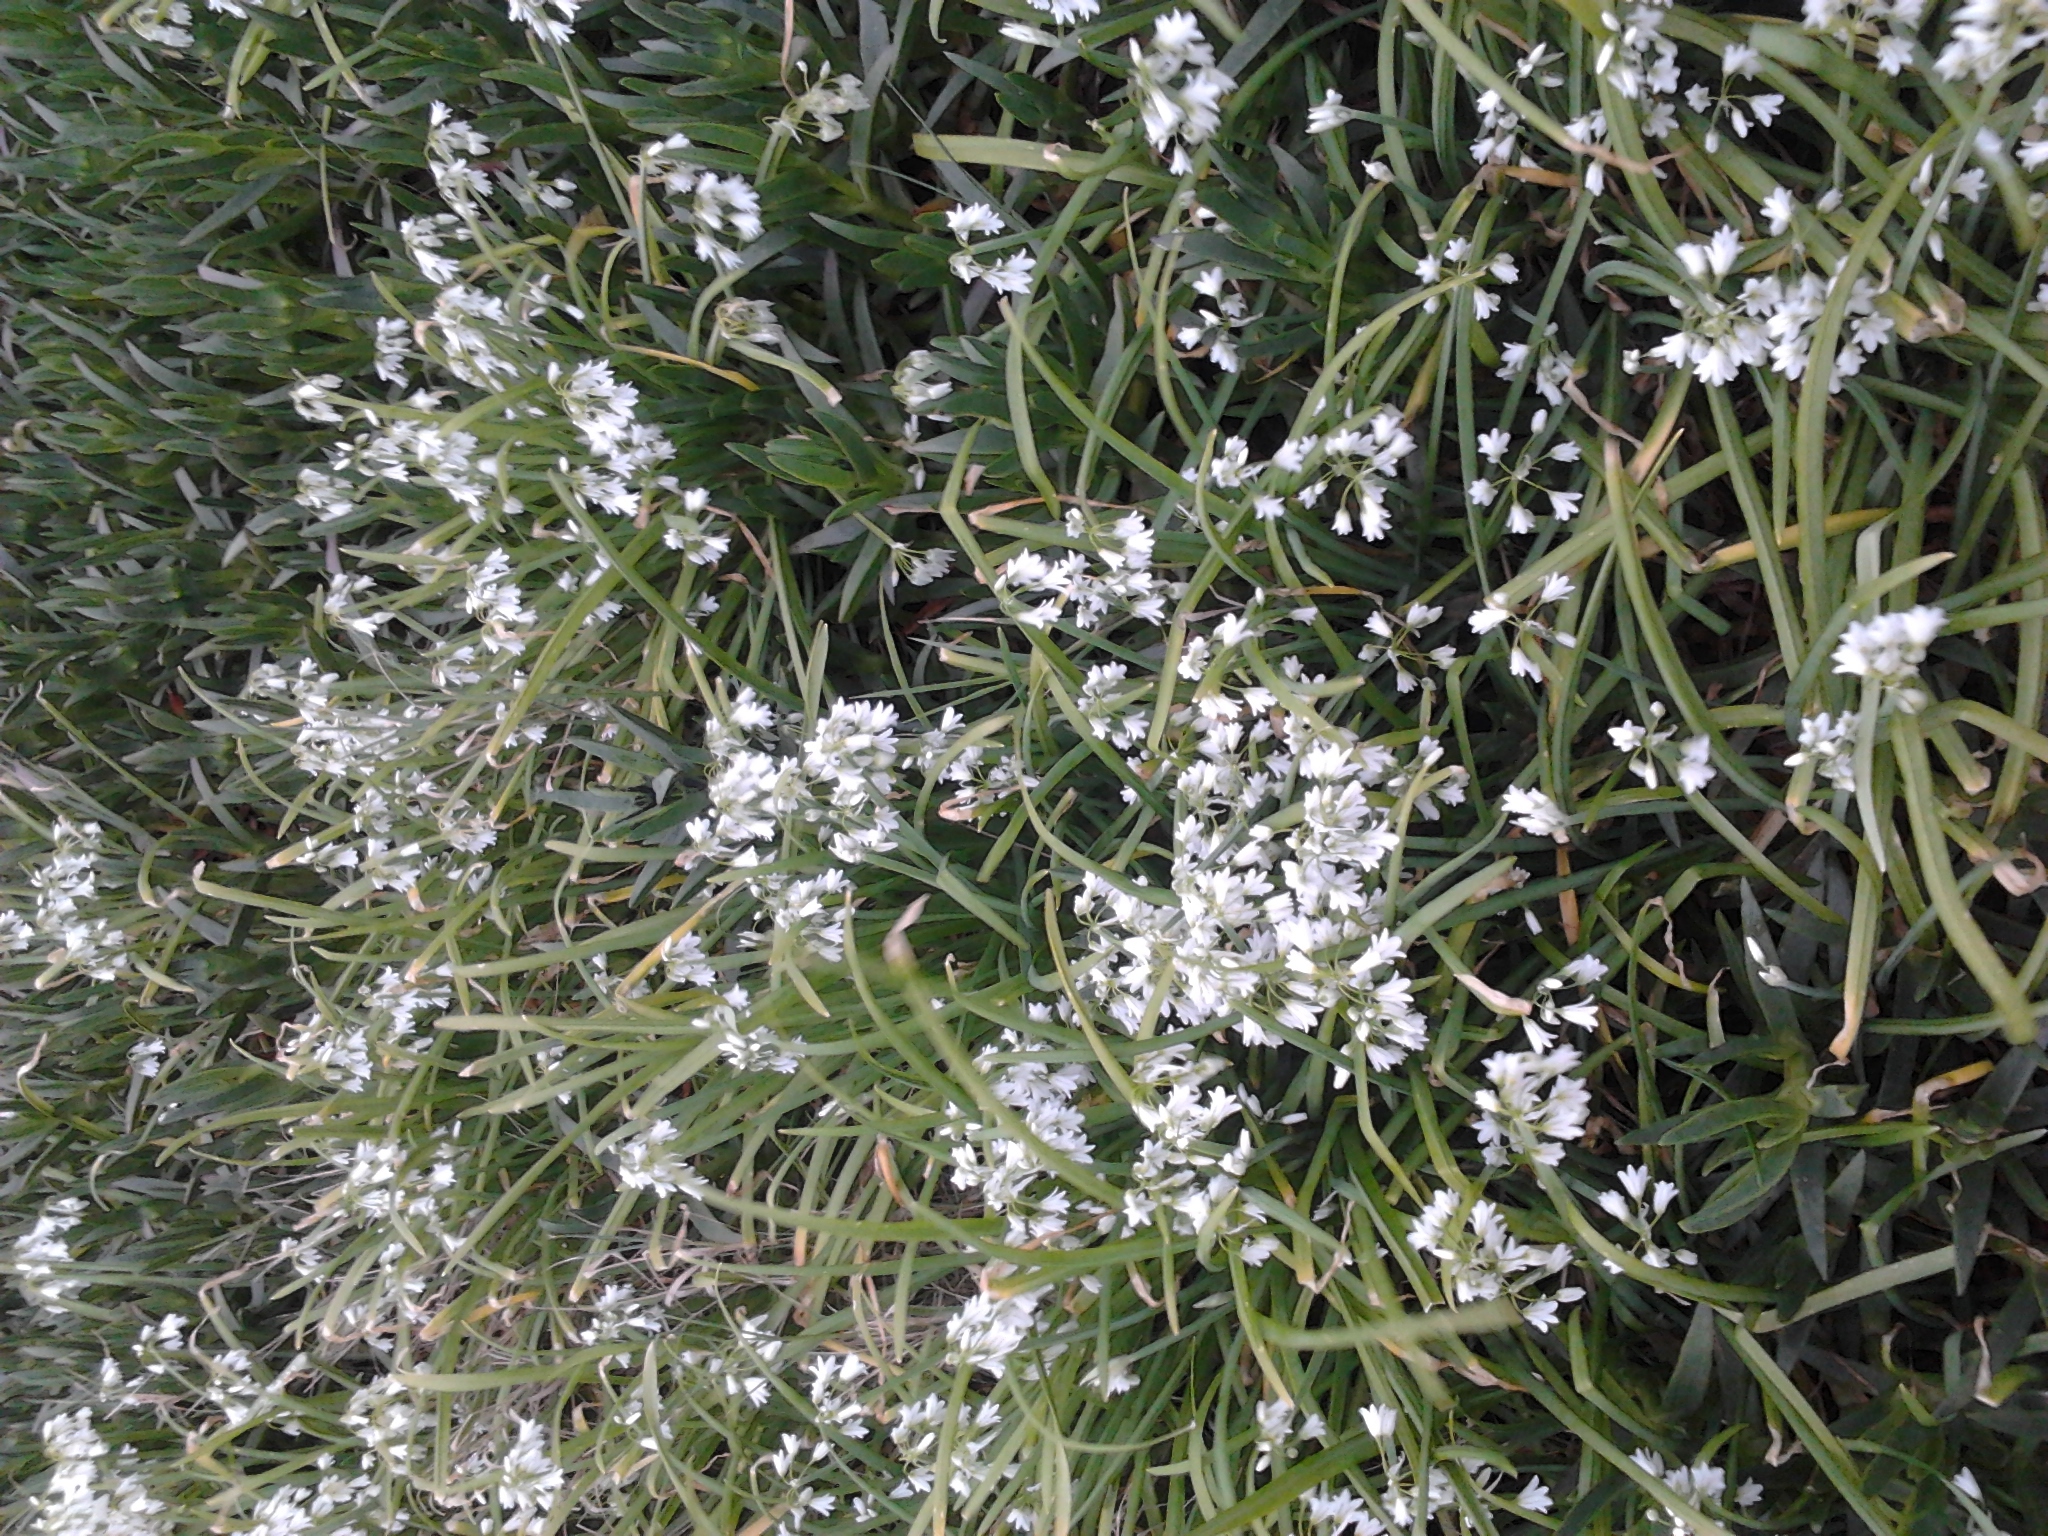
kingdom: Plantae
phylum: Tracheophyta
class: Liliopsida
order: Asparagales
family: Amaryllidaceae
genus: Allium
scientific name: Allium triquetrum
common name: Three-cornered garlic
